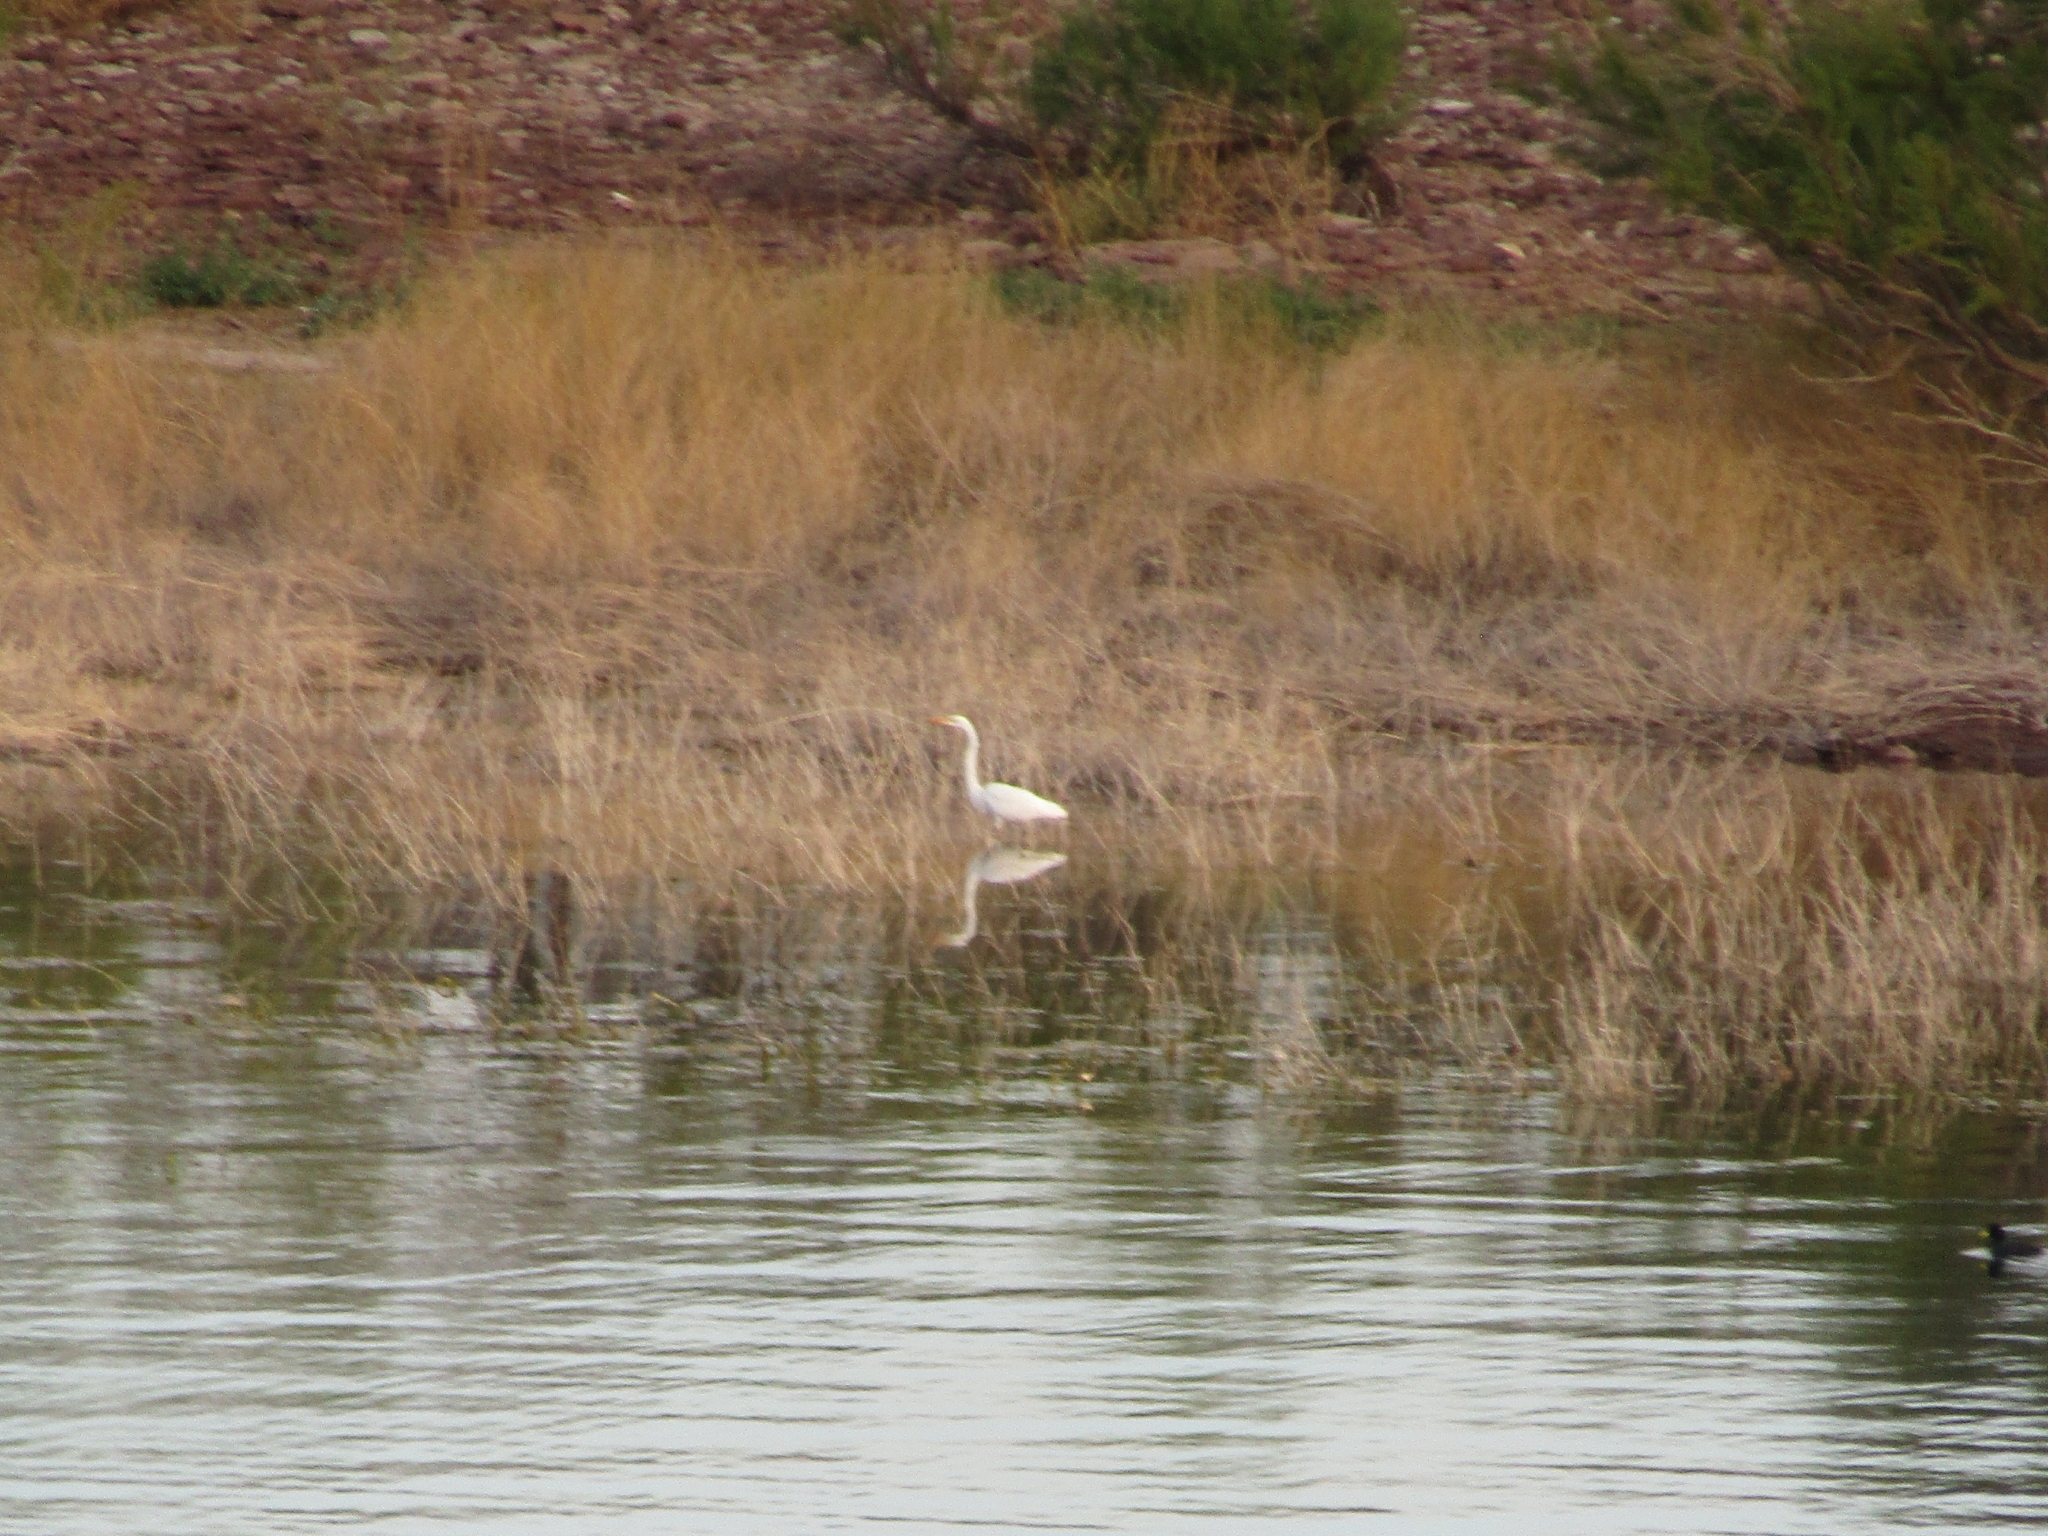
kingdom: Animalia
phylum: Chordata
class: Aves
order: Pelecaniformes
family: Ardeidae
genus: Ardea
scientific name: Ardea alba
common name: Great egret
